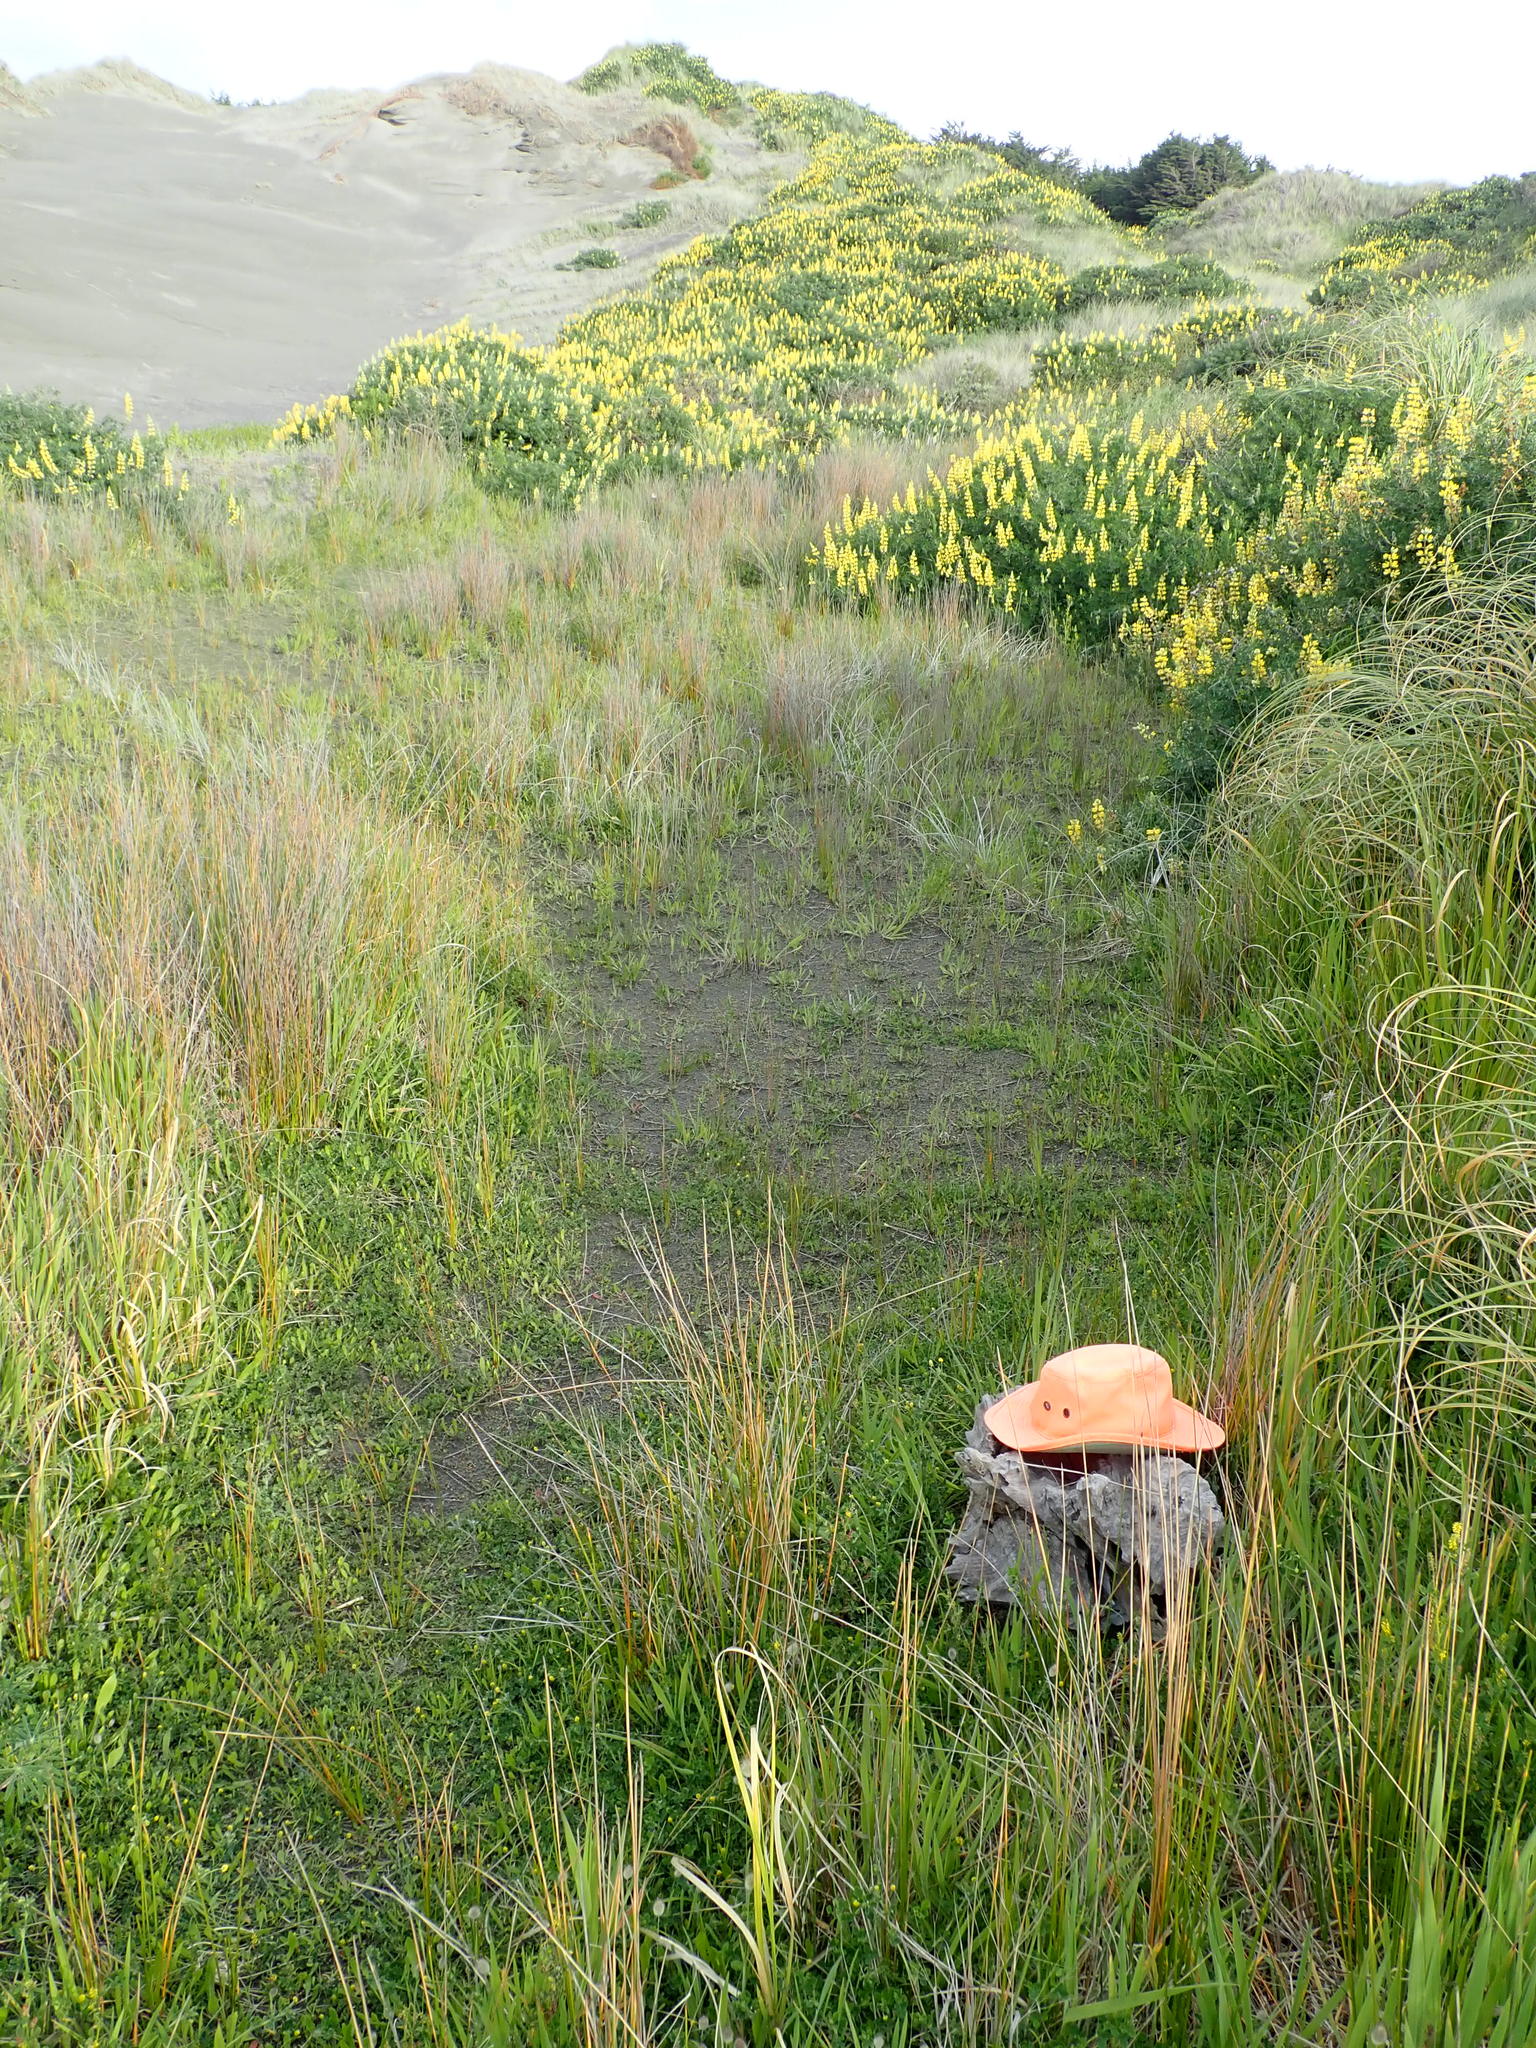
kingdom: Animalia
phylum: Arthropoda
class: Arachnida
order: Araneae
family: Thomisidae
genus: Sidymella
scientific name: Sidymella trapezia
